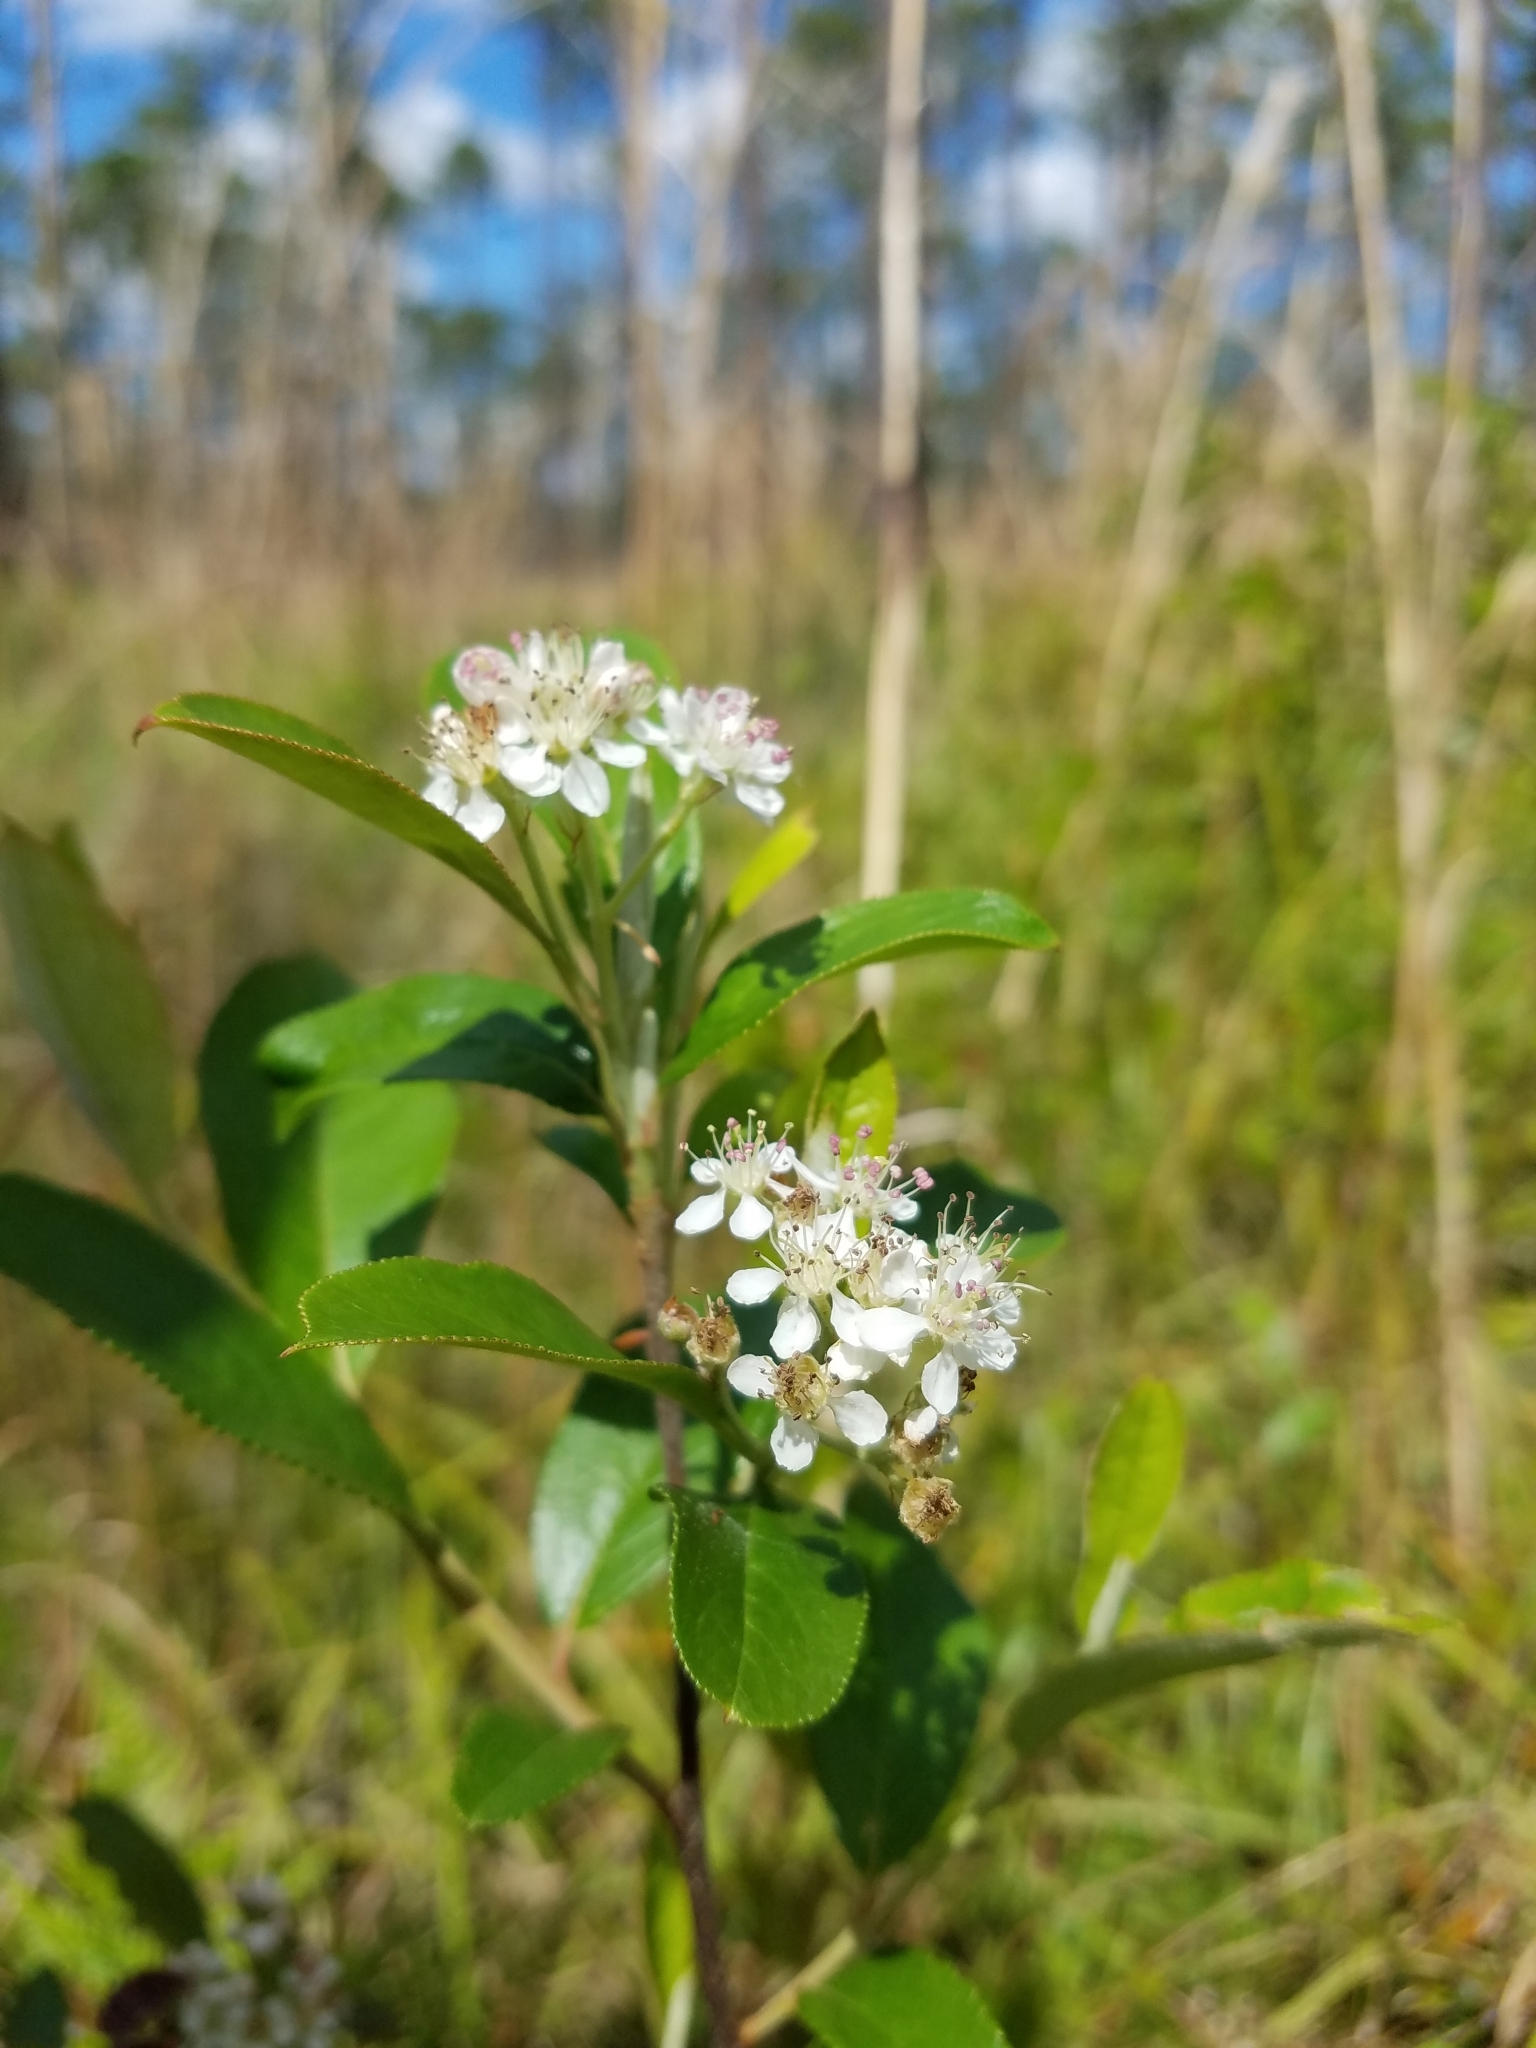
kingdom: Plantae
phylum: Tracheophyta
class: Magnoliopsida
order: Rosales
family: Rosaceae
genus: Aronia
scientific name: Aronia arbutifolia
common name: Red chokeberry
